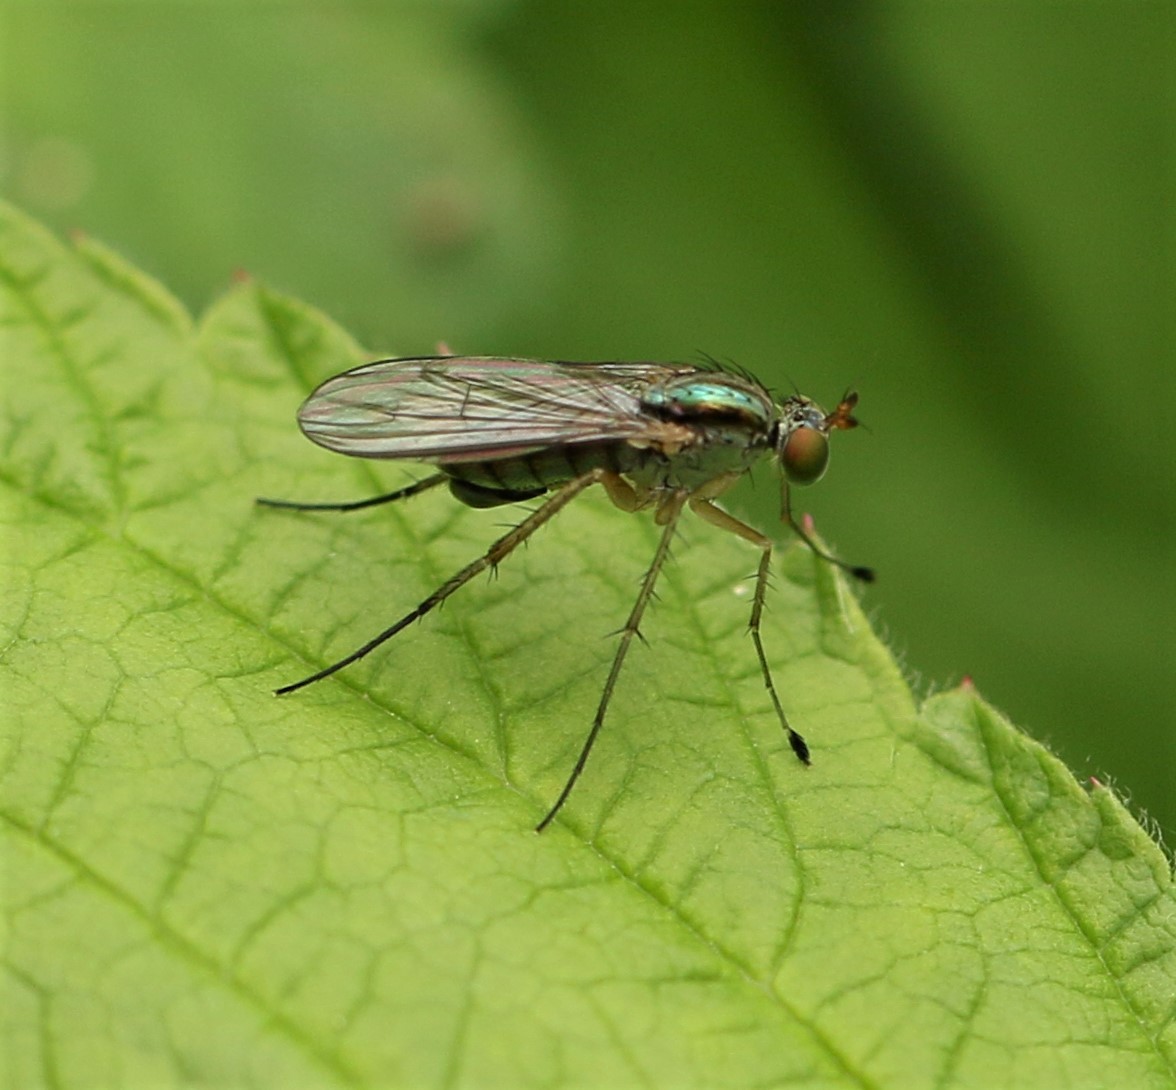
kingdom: Animalia
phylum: Arthropoda
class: Insecta
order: Diptera
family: Dolichopodidae
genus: Dolichopus
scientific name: Dolichopus cuprinus
